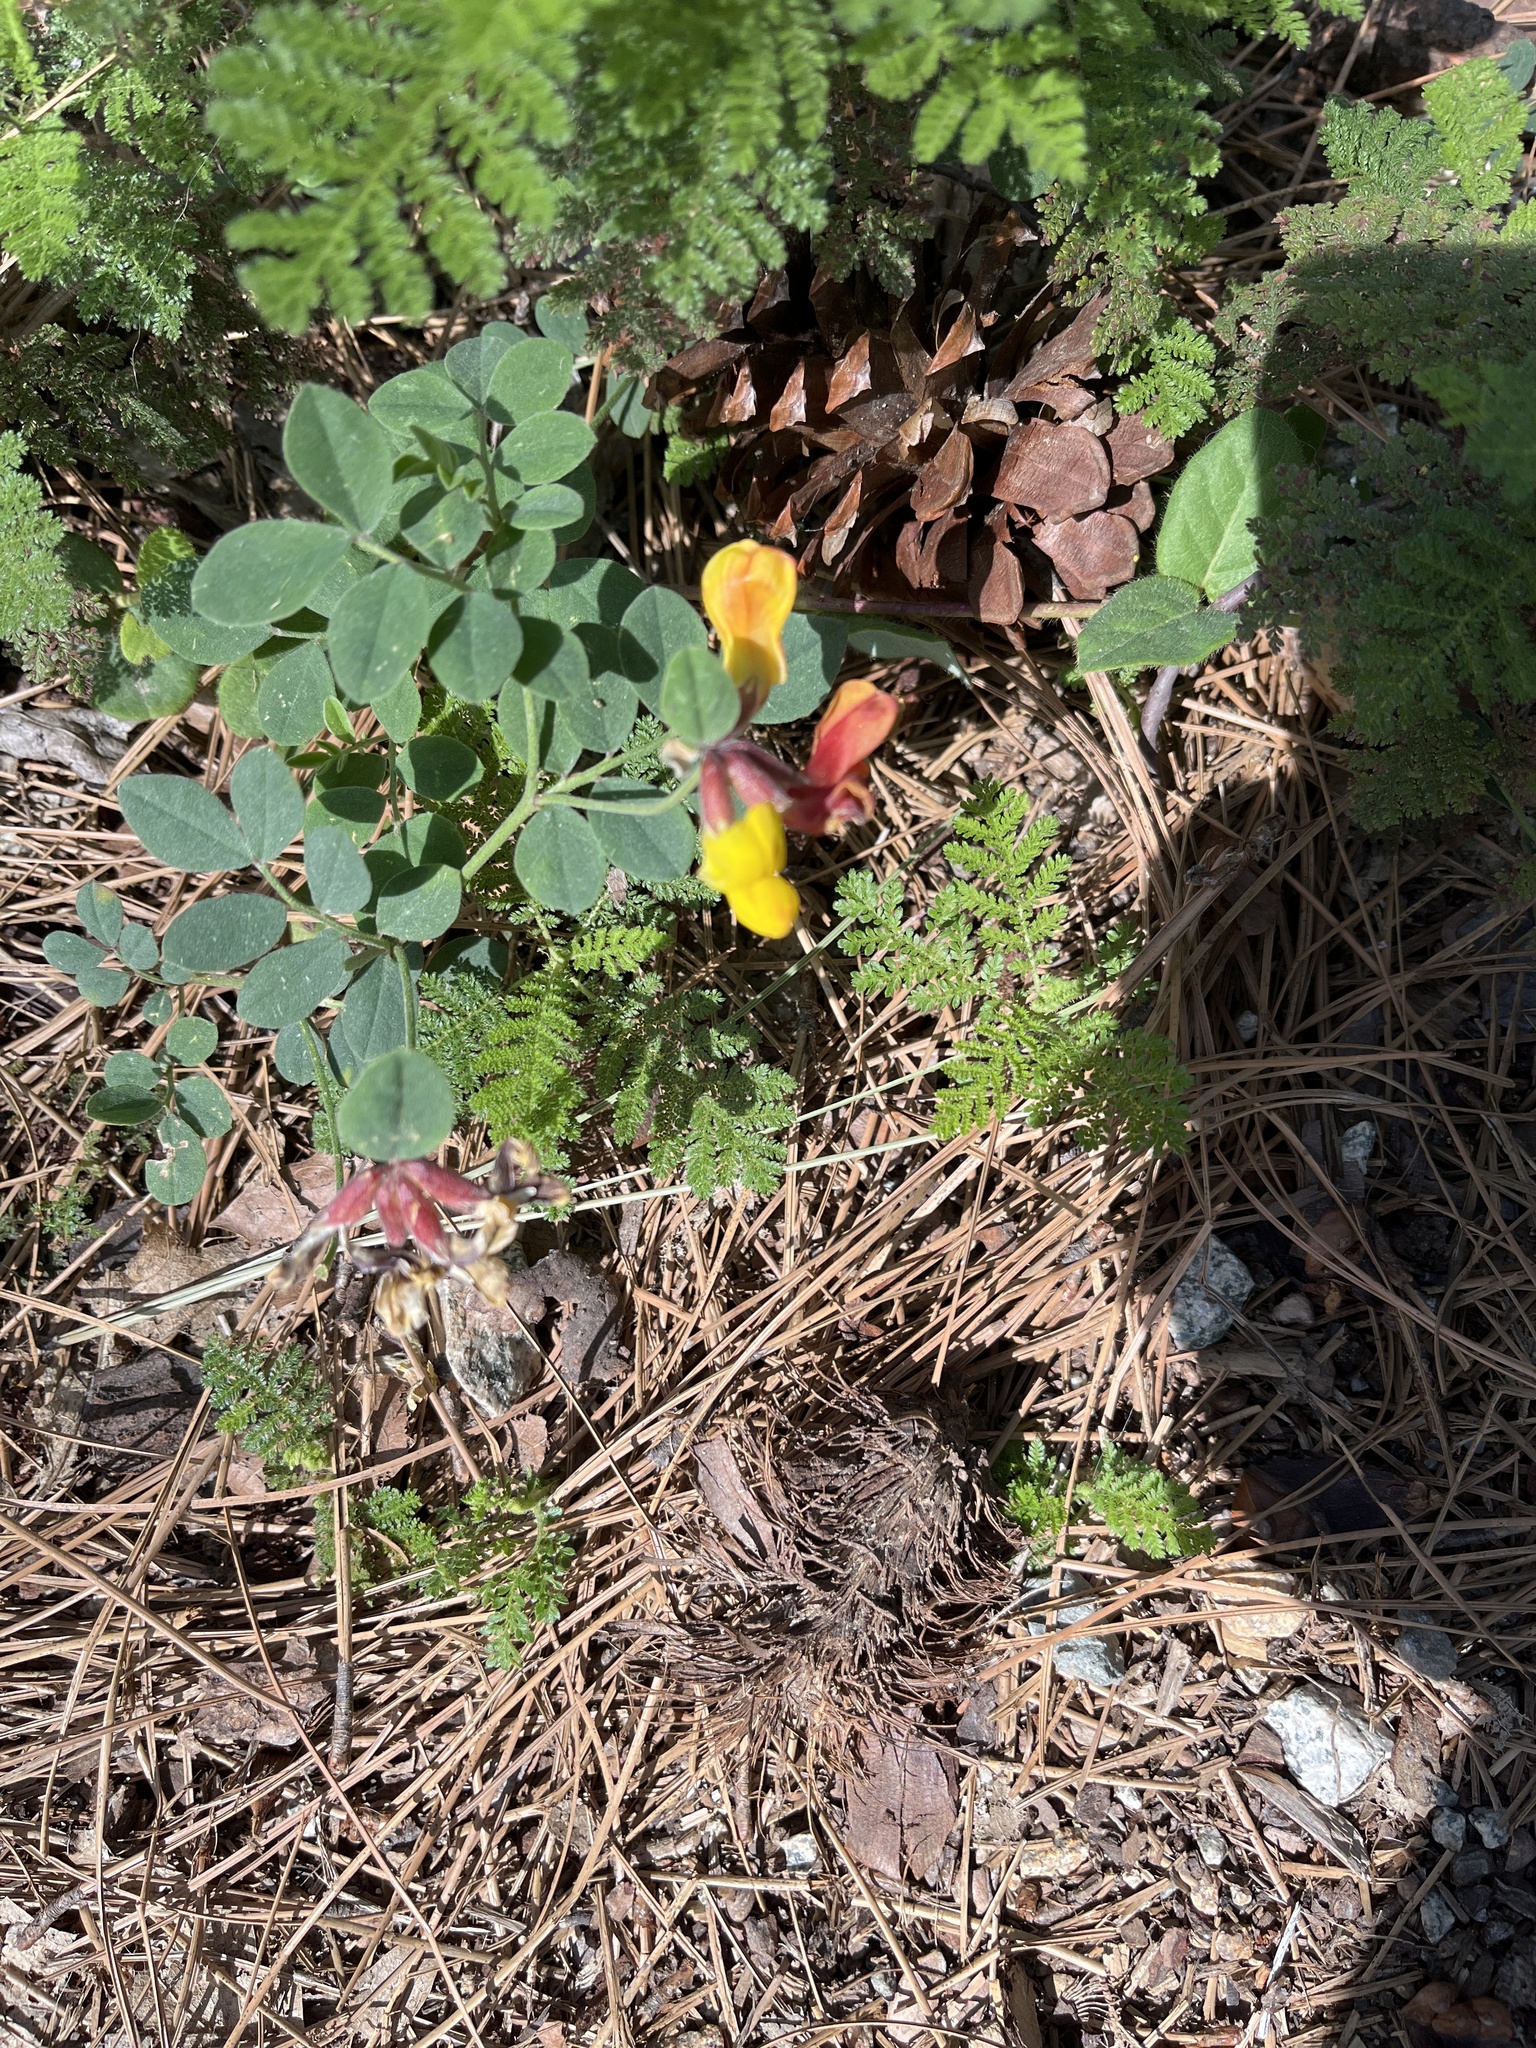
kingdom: Plantae
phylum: Tracheophyta
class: Magnoliopsida
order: Fabales
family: Fabaceae
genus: Acmispon
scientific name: Acmispon grandiflorus
